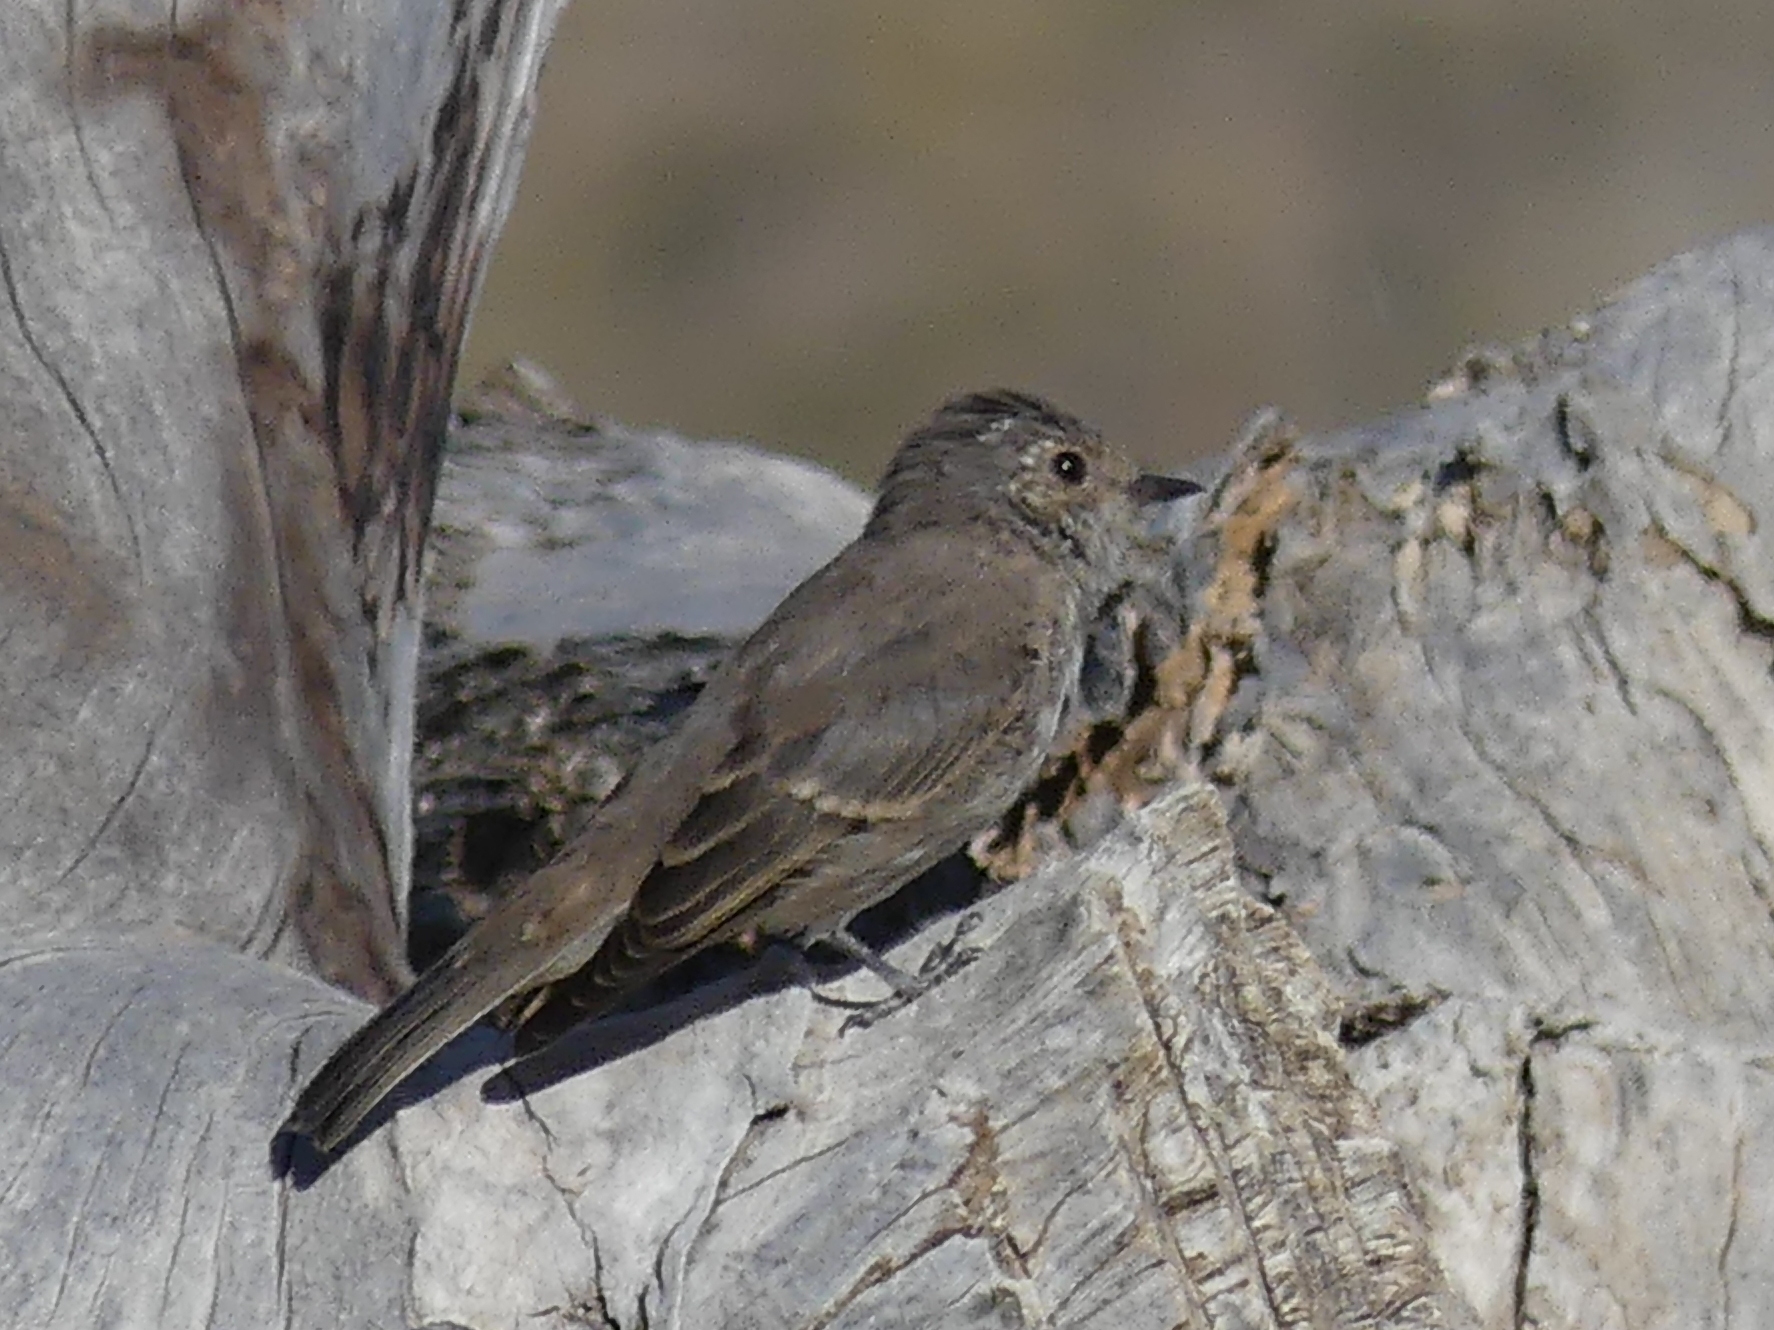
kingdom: Animalia
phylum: Chordata
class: Aves
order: Passeriformes
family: Muscicapidae
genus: Muscicapa
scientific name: Muscicapa striata
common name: Spotted flycatcher
